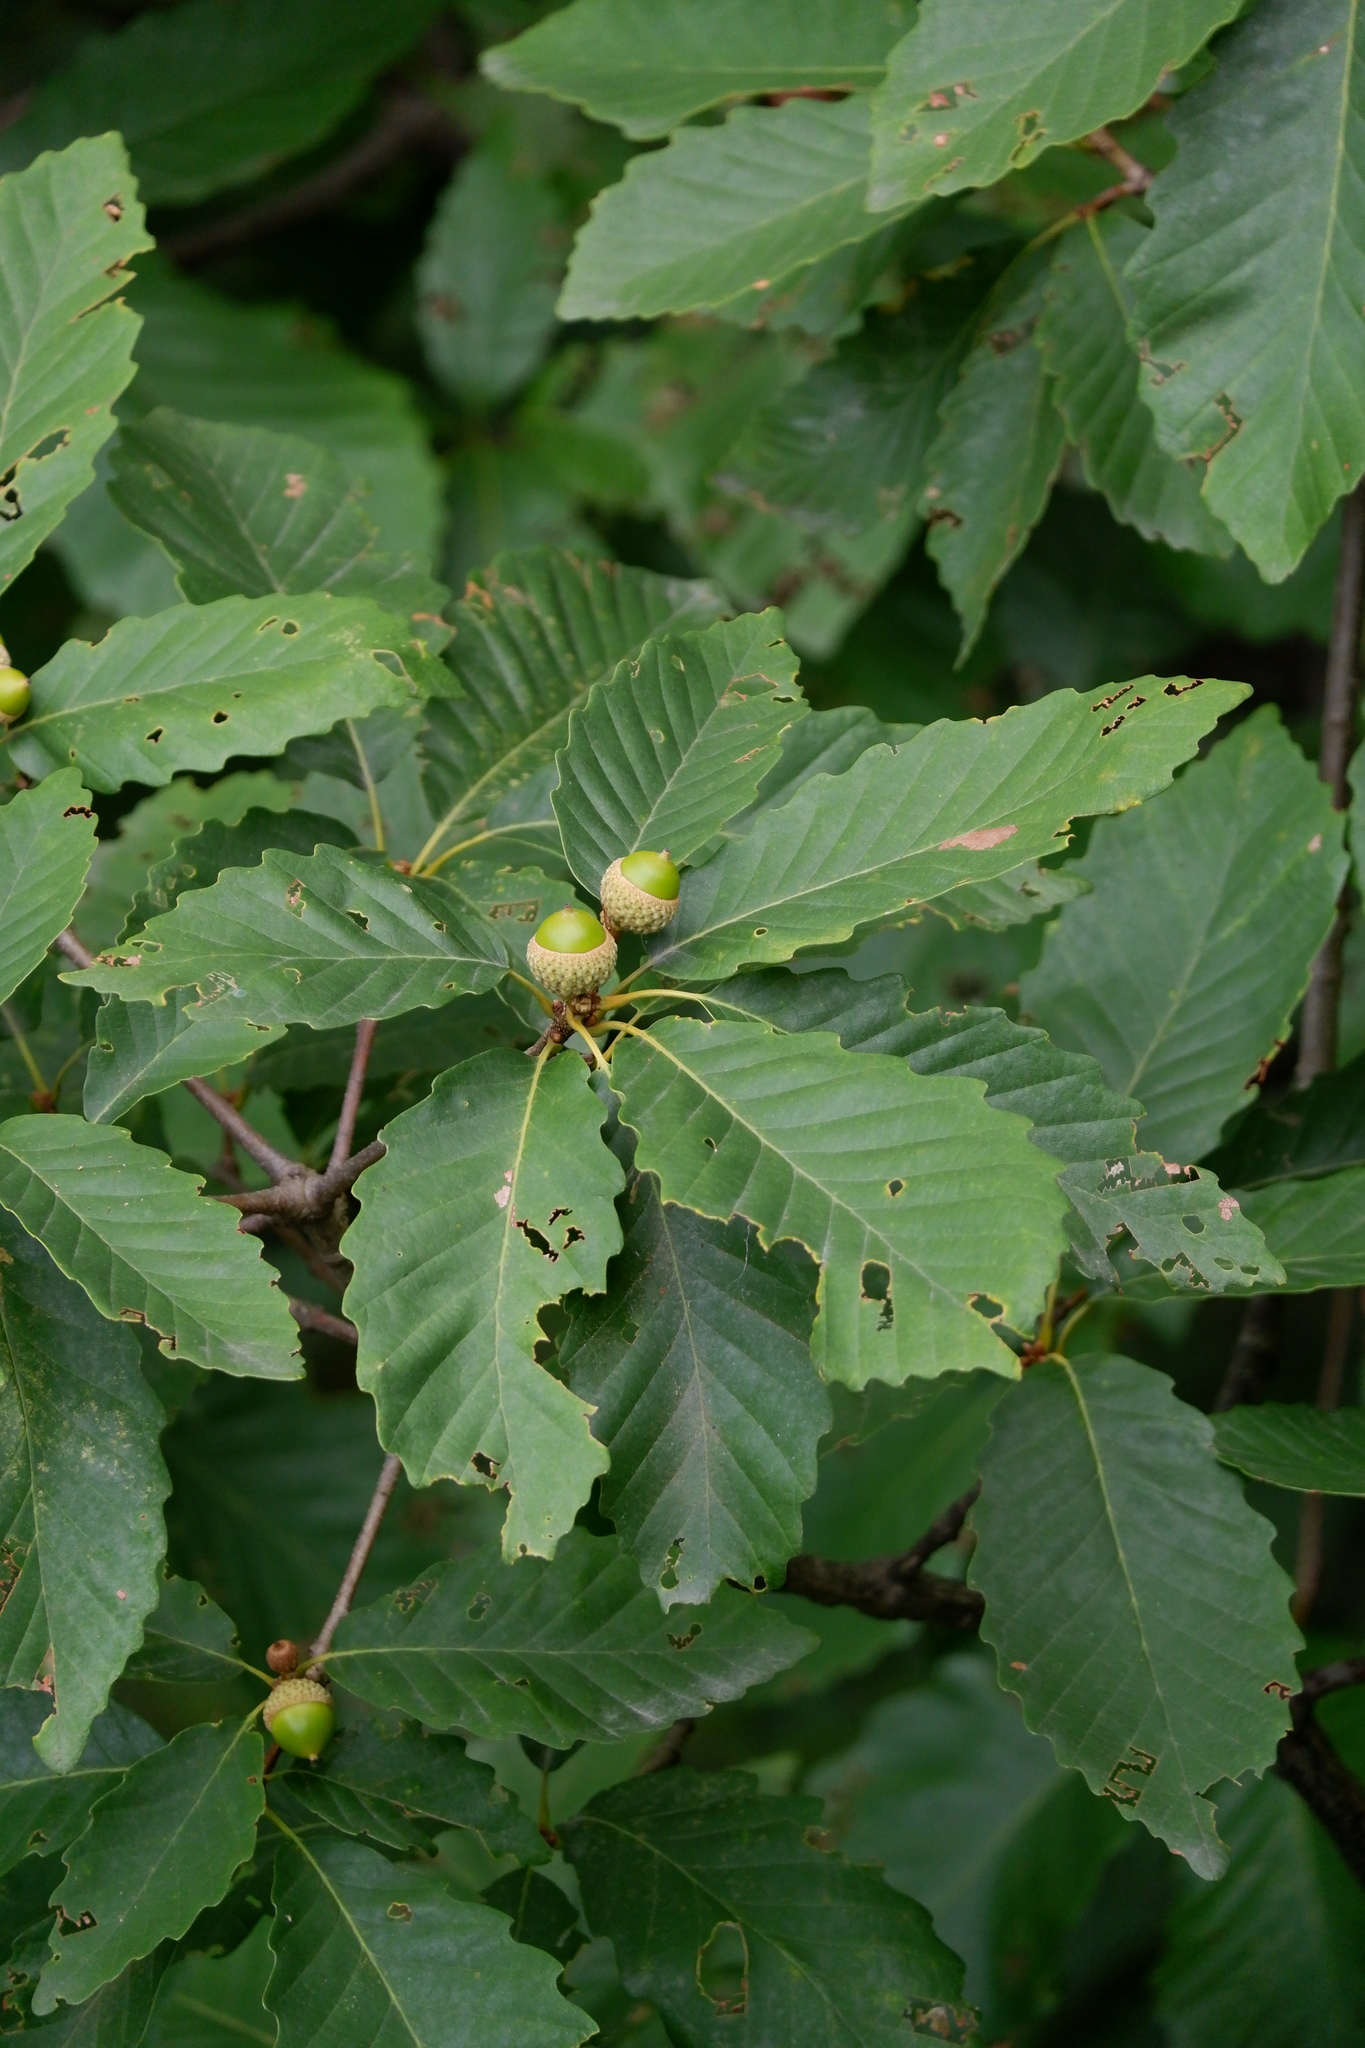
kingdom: Plantae
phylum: Tracheophyta
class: Magnoliopsida
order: Fagales
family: Fagaceae
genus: Quercus
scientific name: Quercus montana
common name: Chestnut oak
